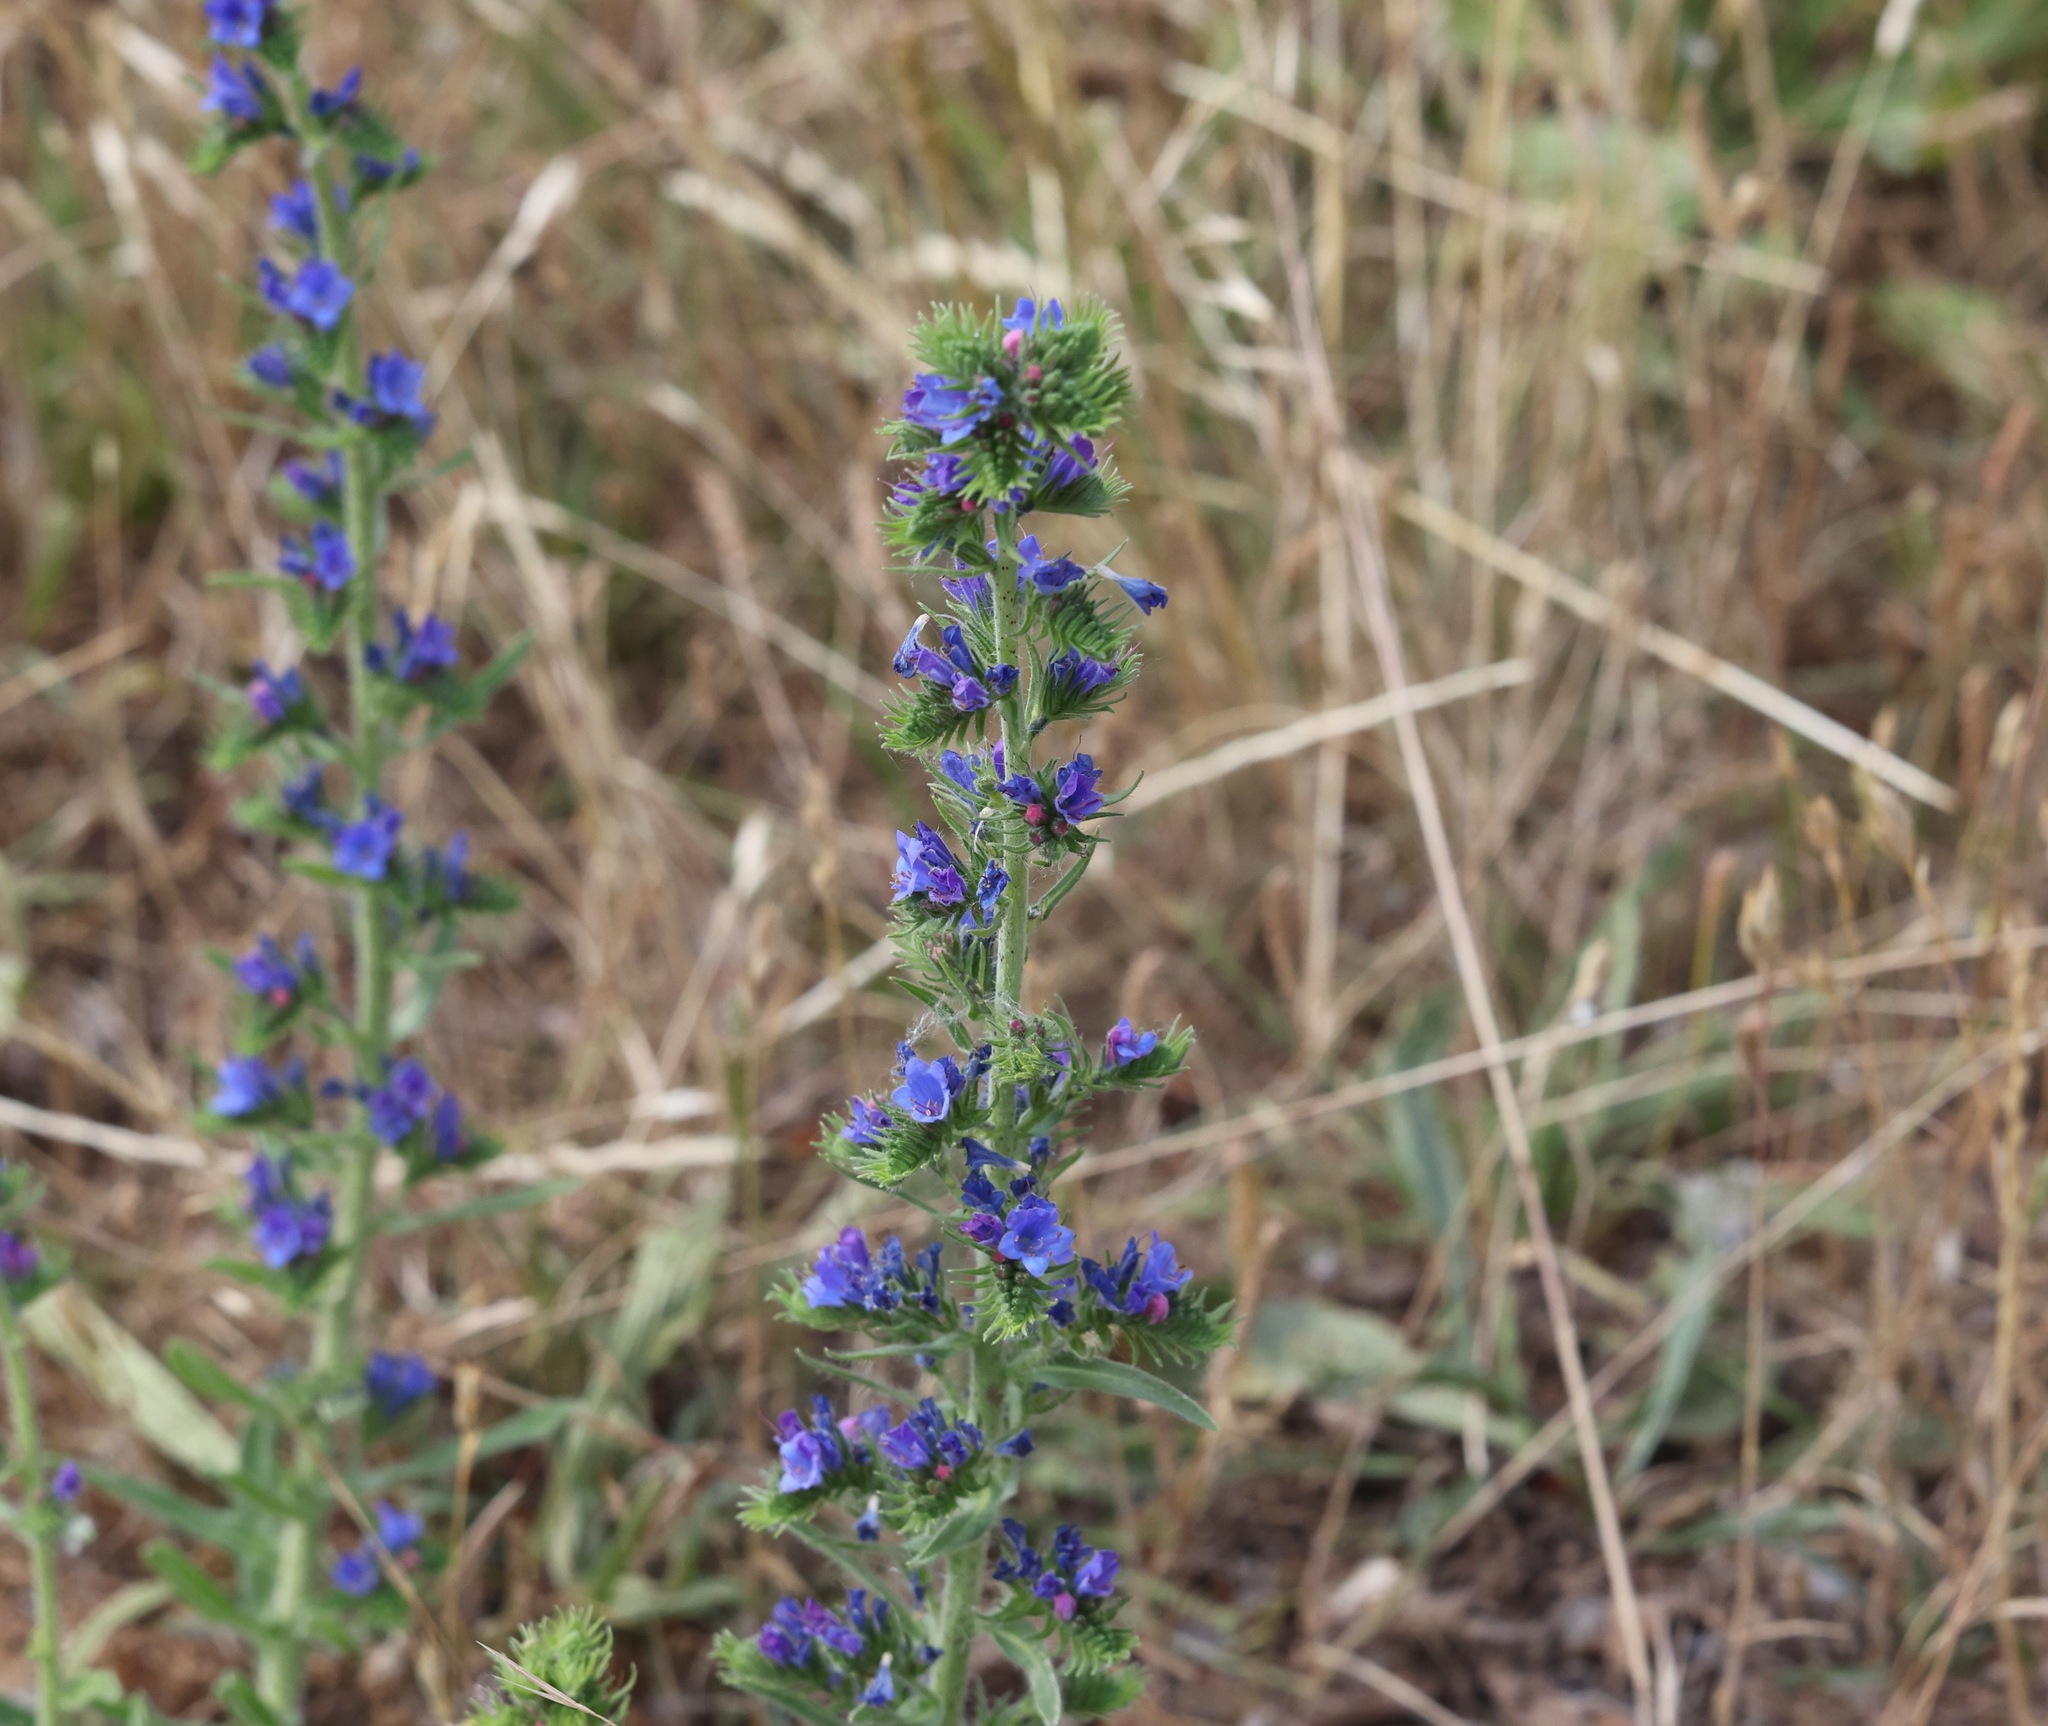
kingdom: Plantae
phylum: Tracheophyta
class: Magnoliopsida
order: Boraginales
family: Boraginaceae
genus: Echium
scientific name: Echium vulgare
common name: Common viper's bugloss
